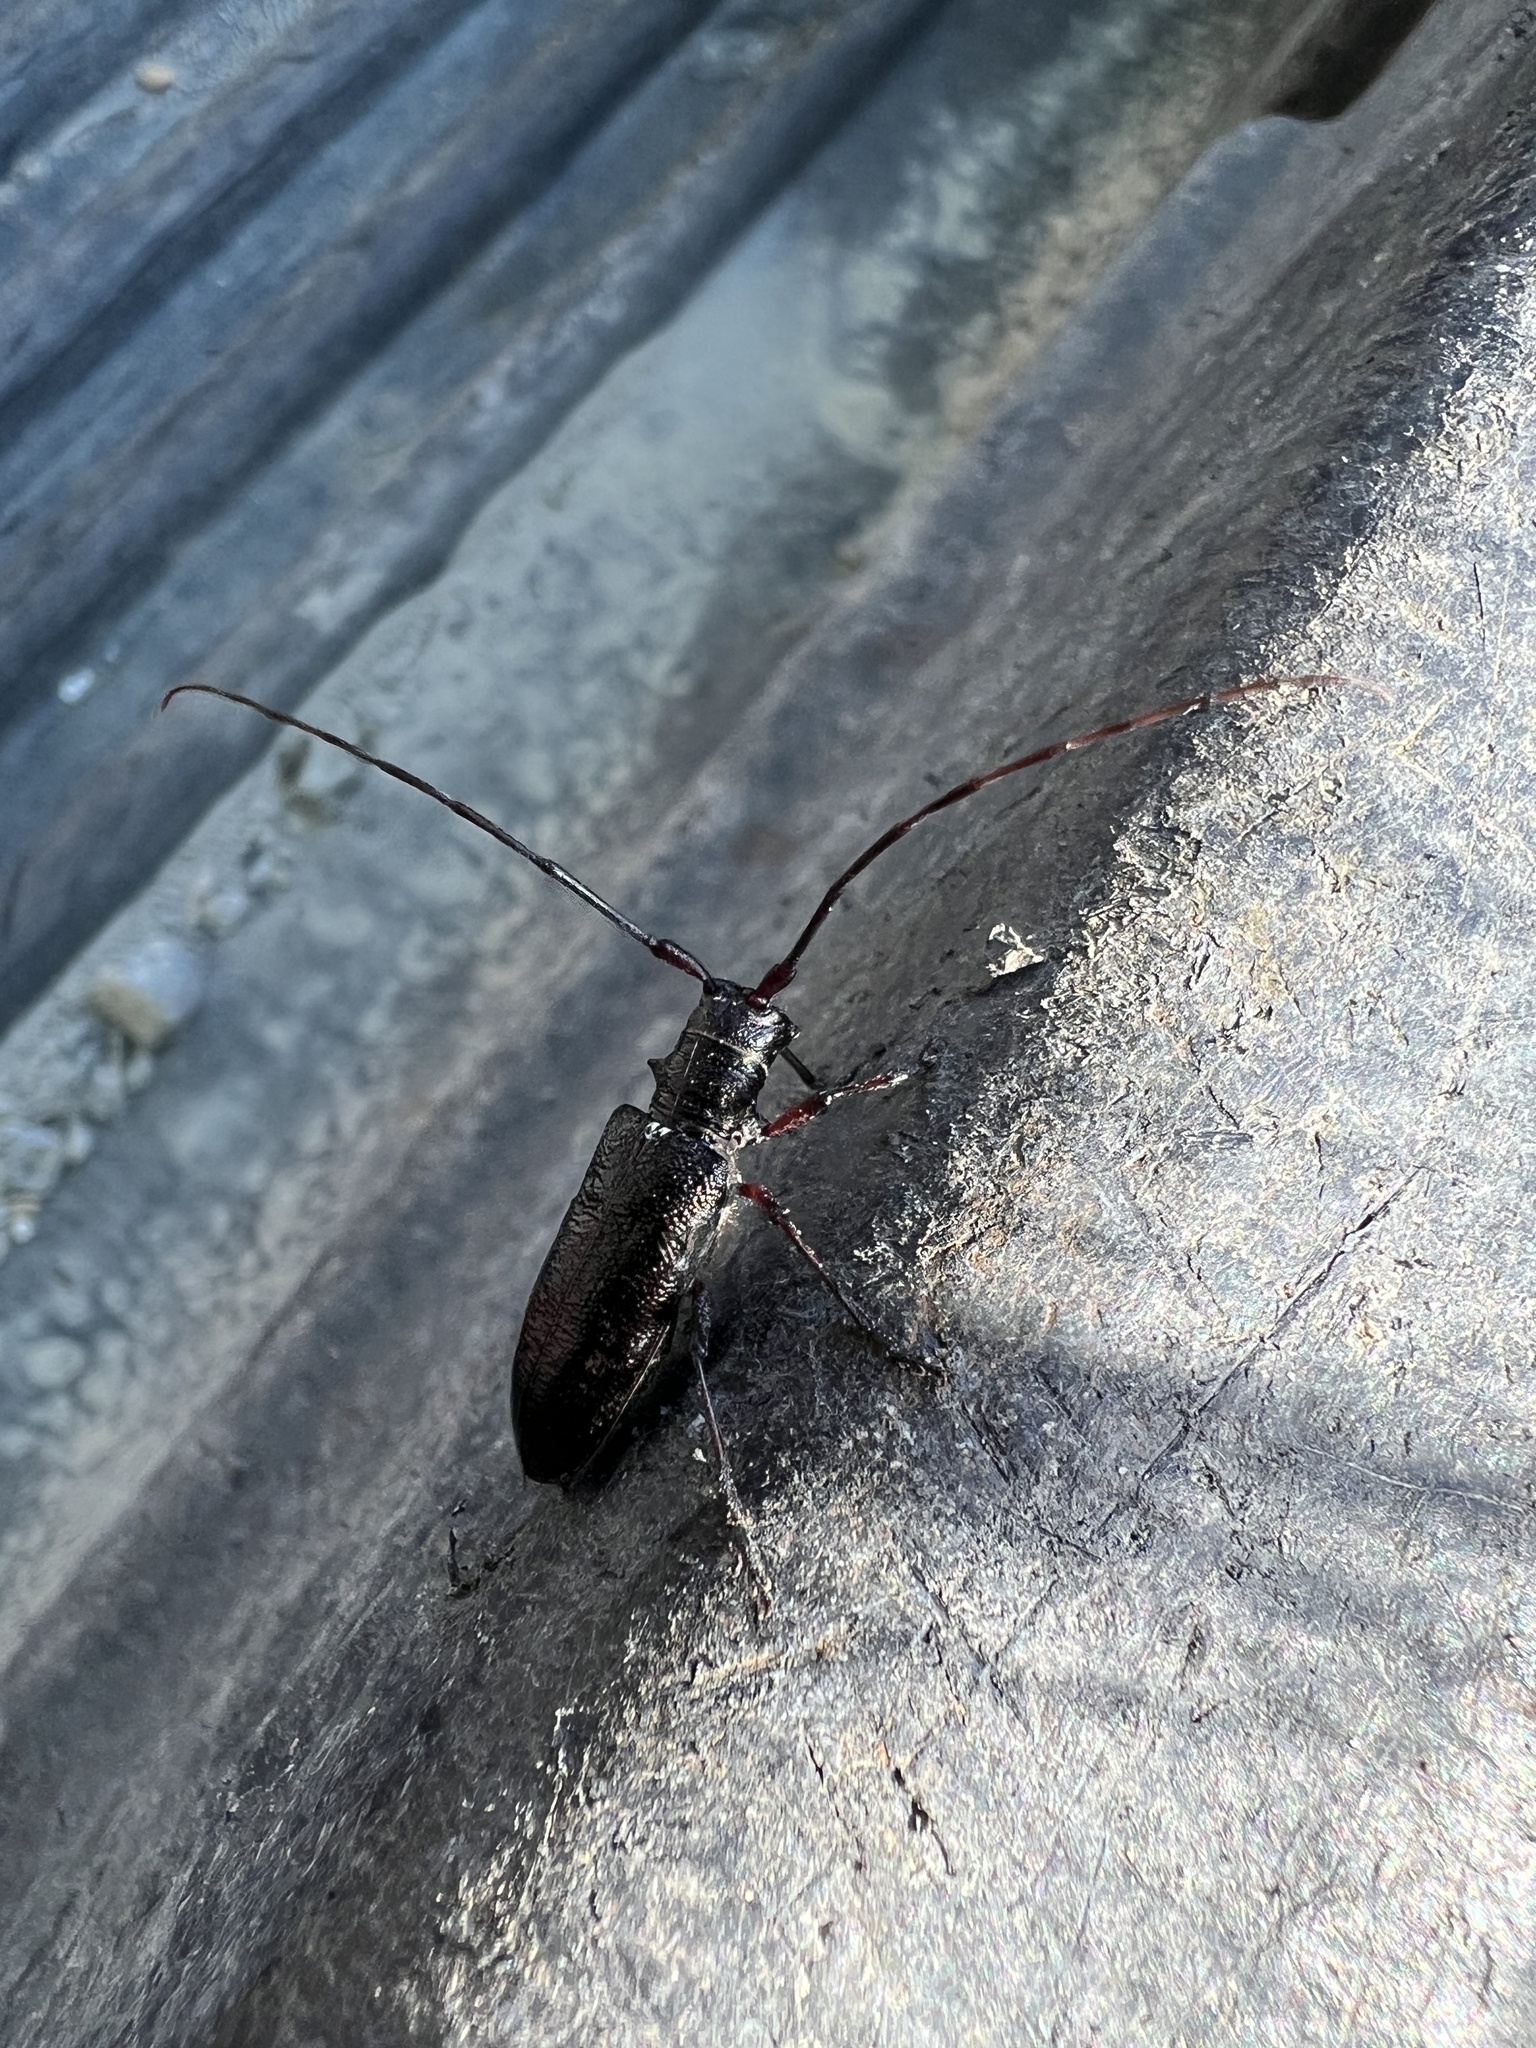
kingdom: Animalia
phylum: Arthropoda
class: Insecta
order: Coleoptera
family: Cerambycidae
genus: Monochamus
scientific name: Monochamus scutellatus
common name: White-spotted sawyer beetle
